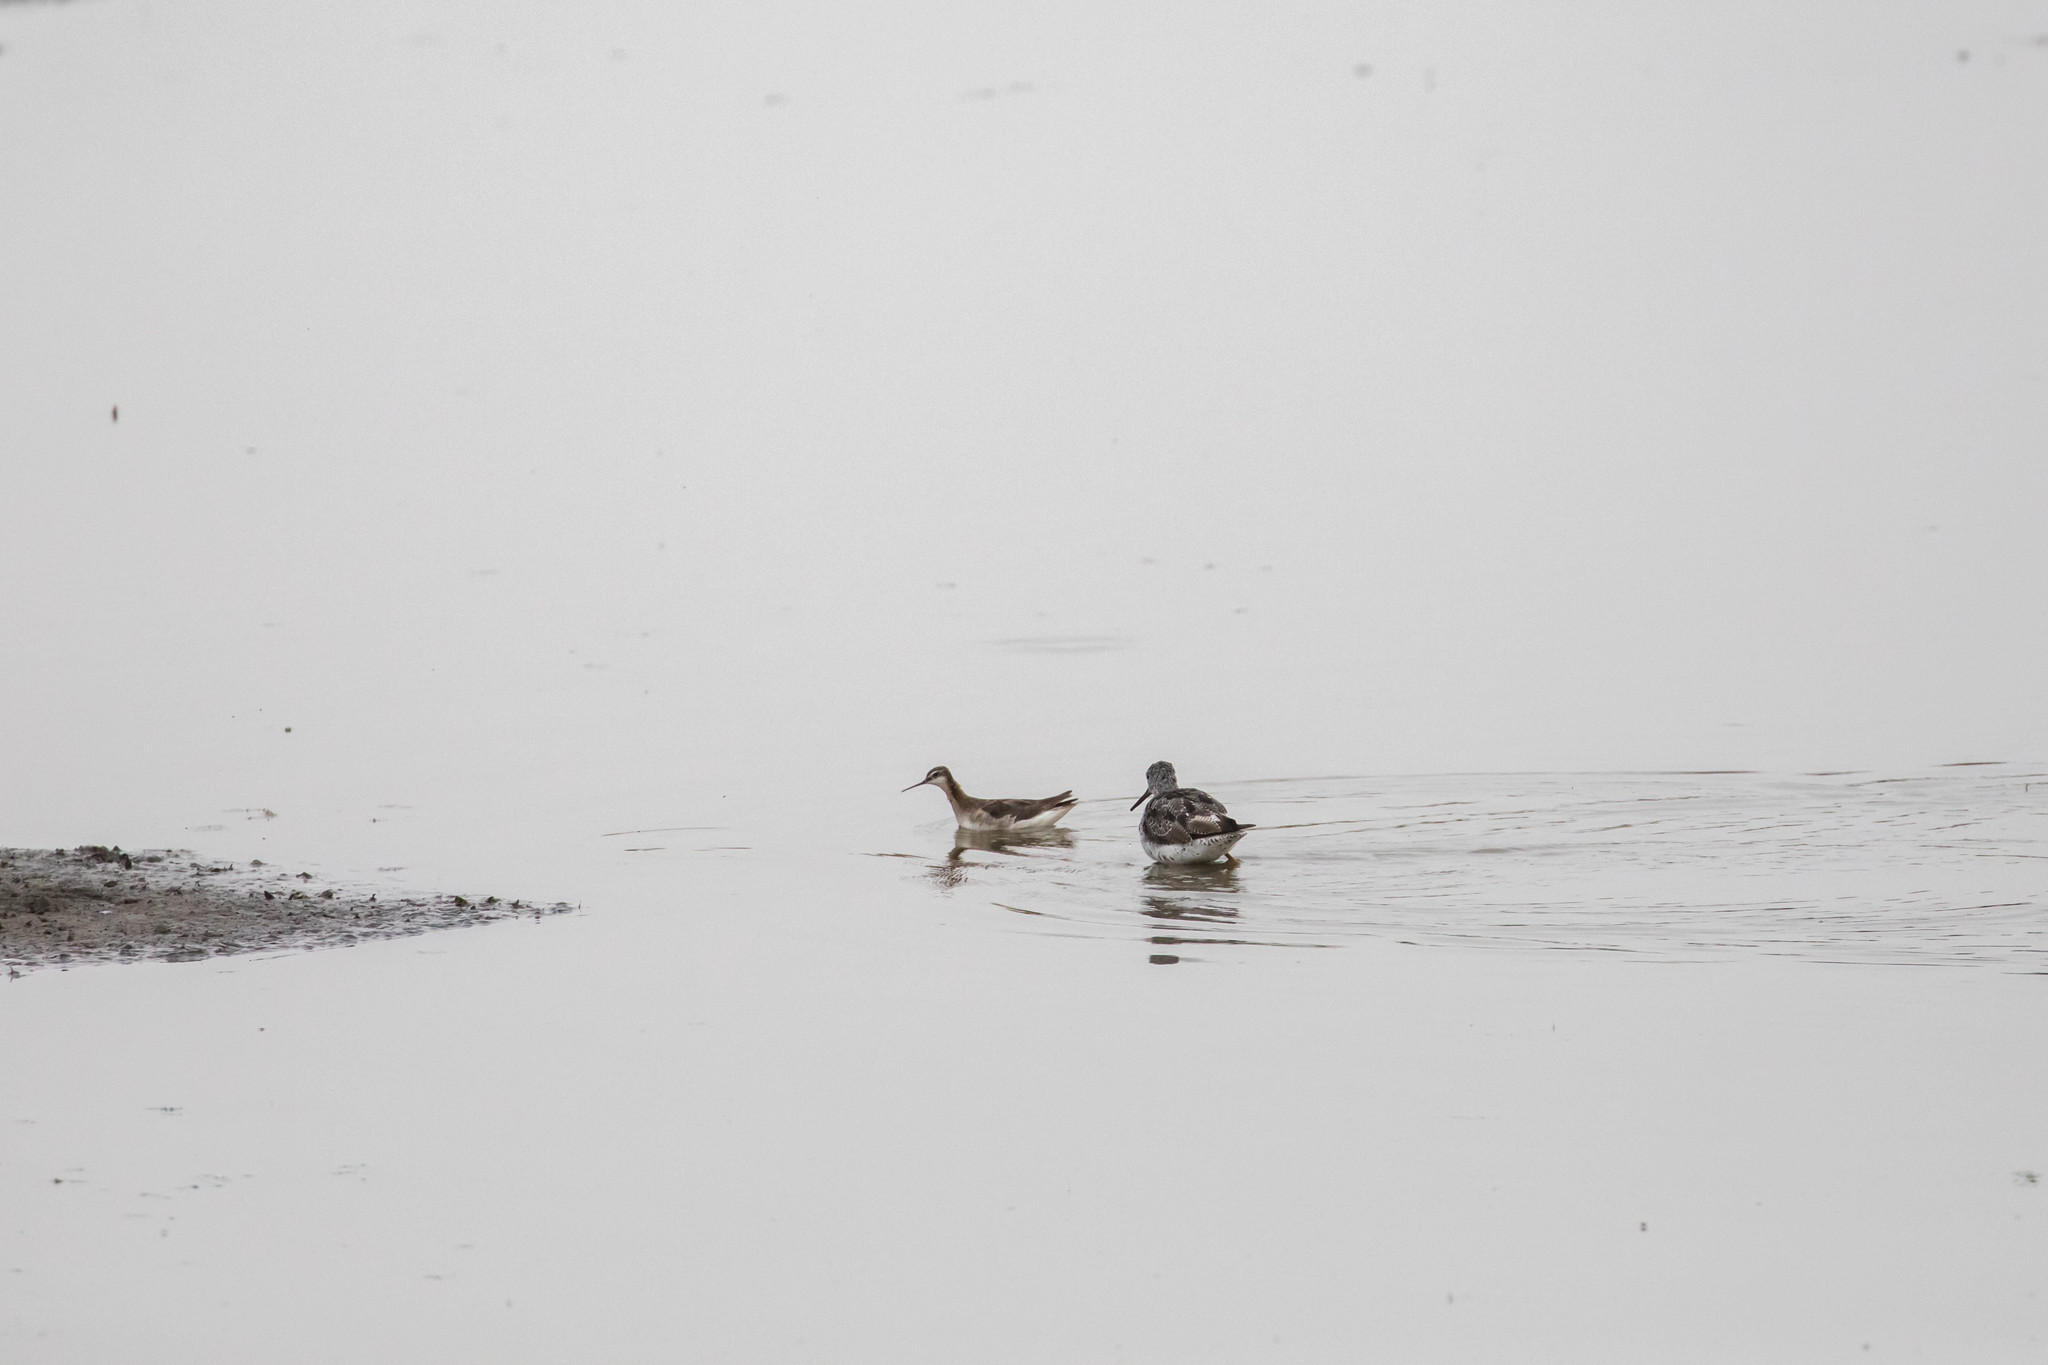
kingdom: Animalia
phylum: Chordata
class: Aves
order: Charadriiformes
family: Scolopacidae
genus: Phalaropus
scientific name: Phalaropus tricolor
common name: Wilson's phalarope
